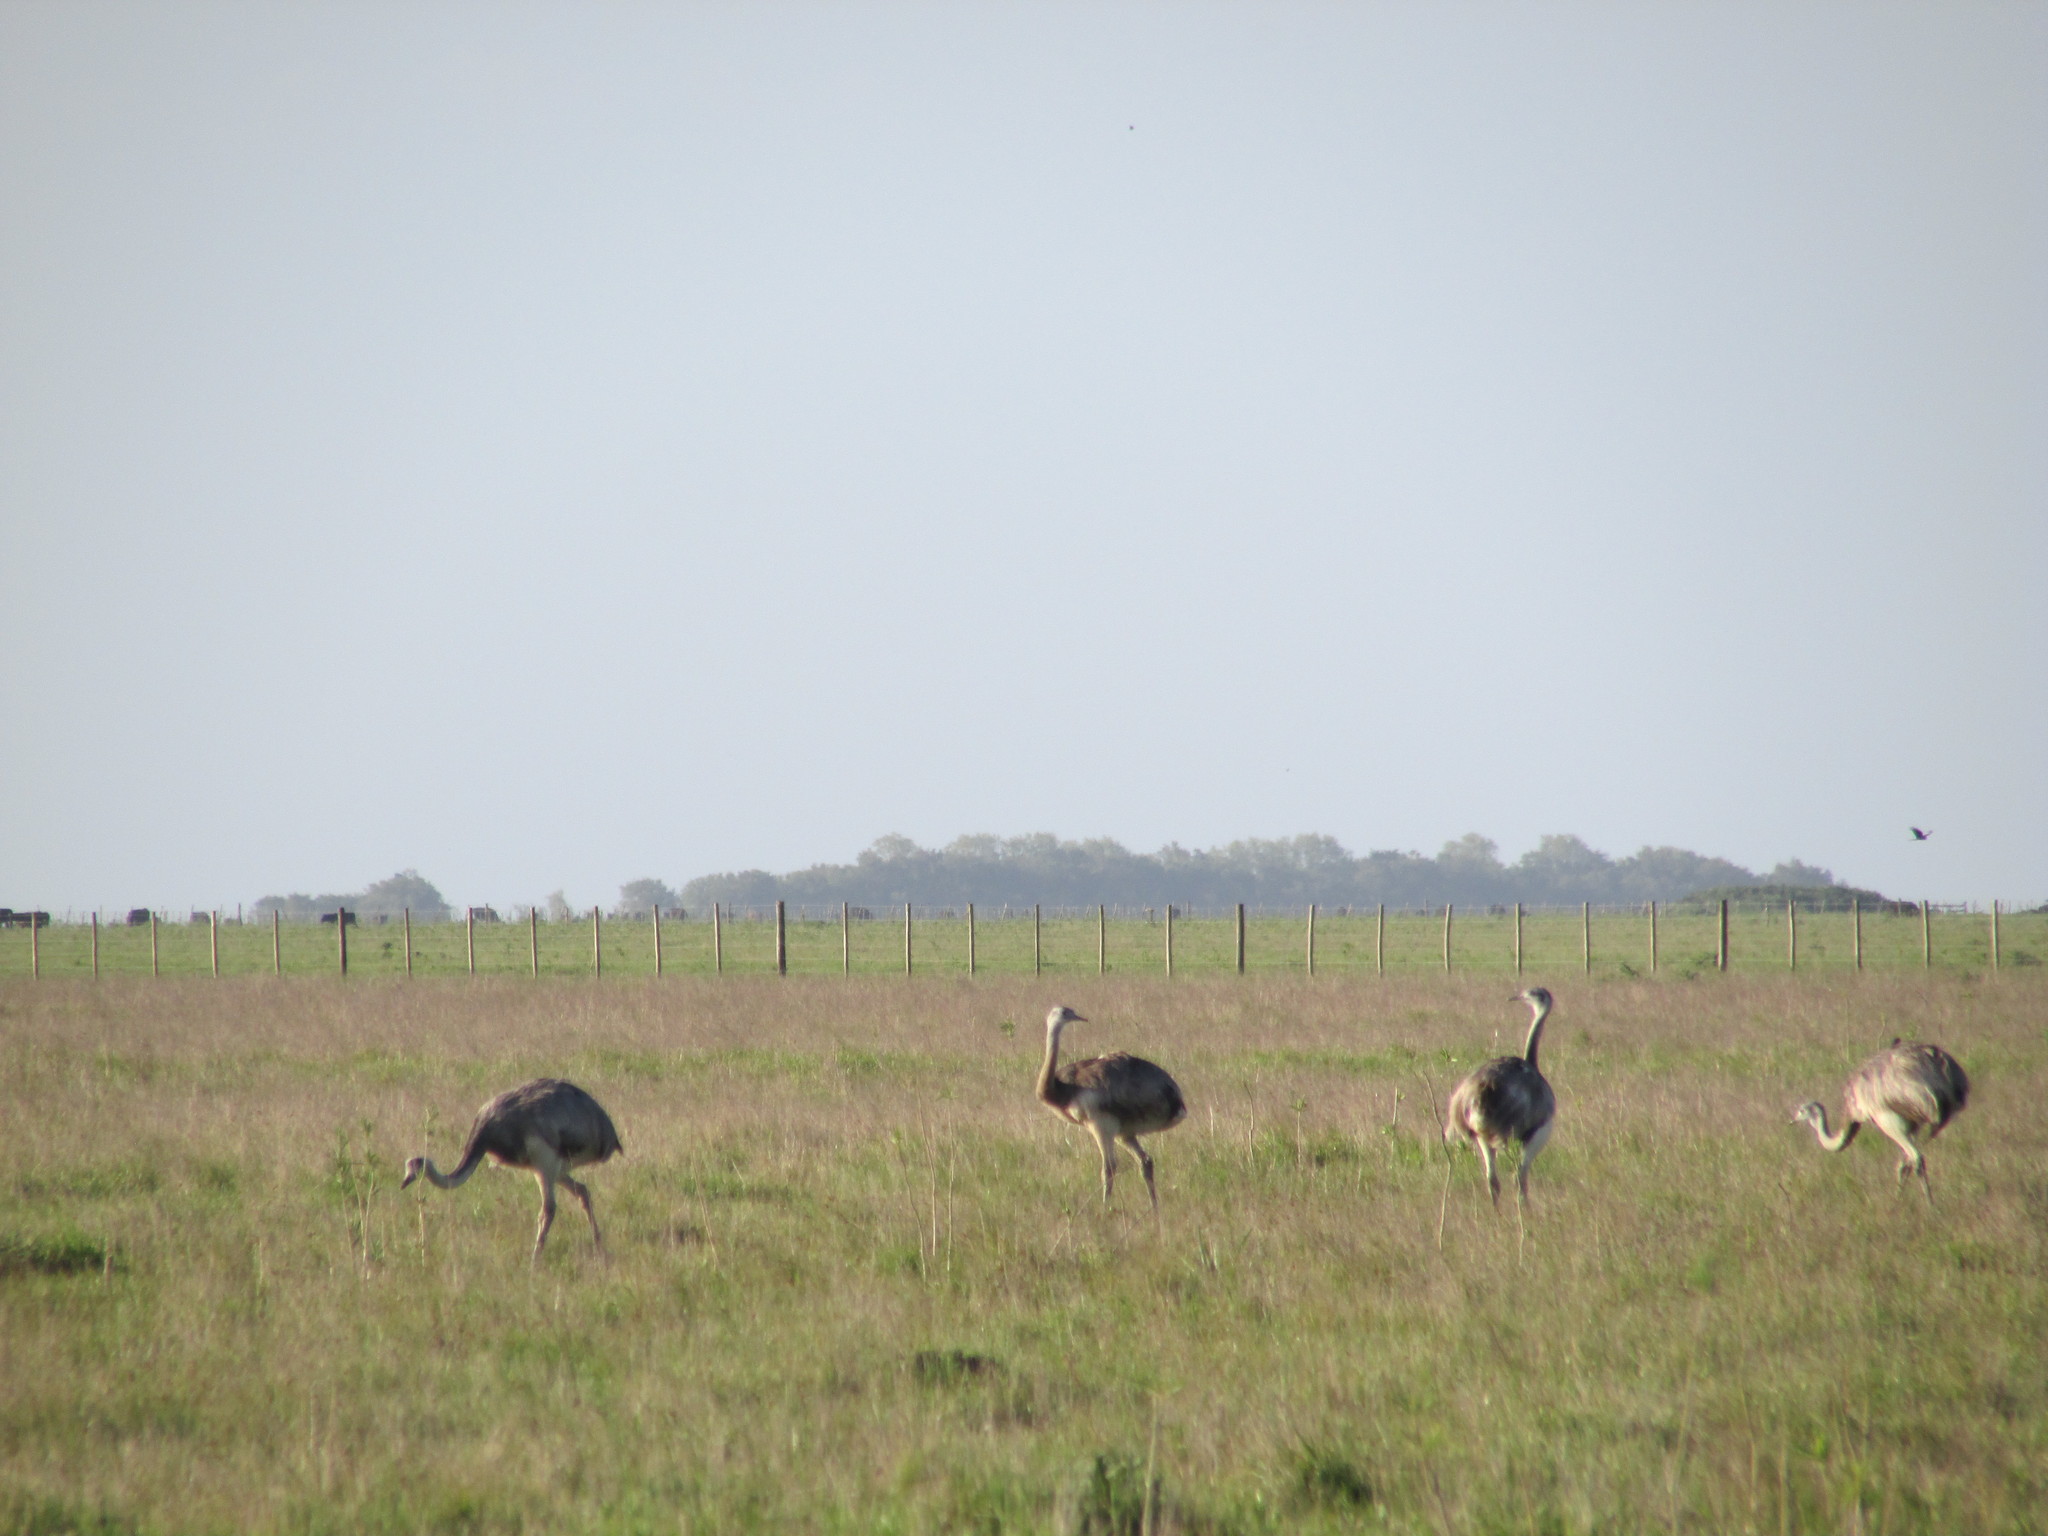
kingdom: Animalia
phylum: Chordata
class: Aves
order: Rheiformes
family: Rheidae
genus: Rhea
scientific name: Rhea americana
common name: Greater rhea
